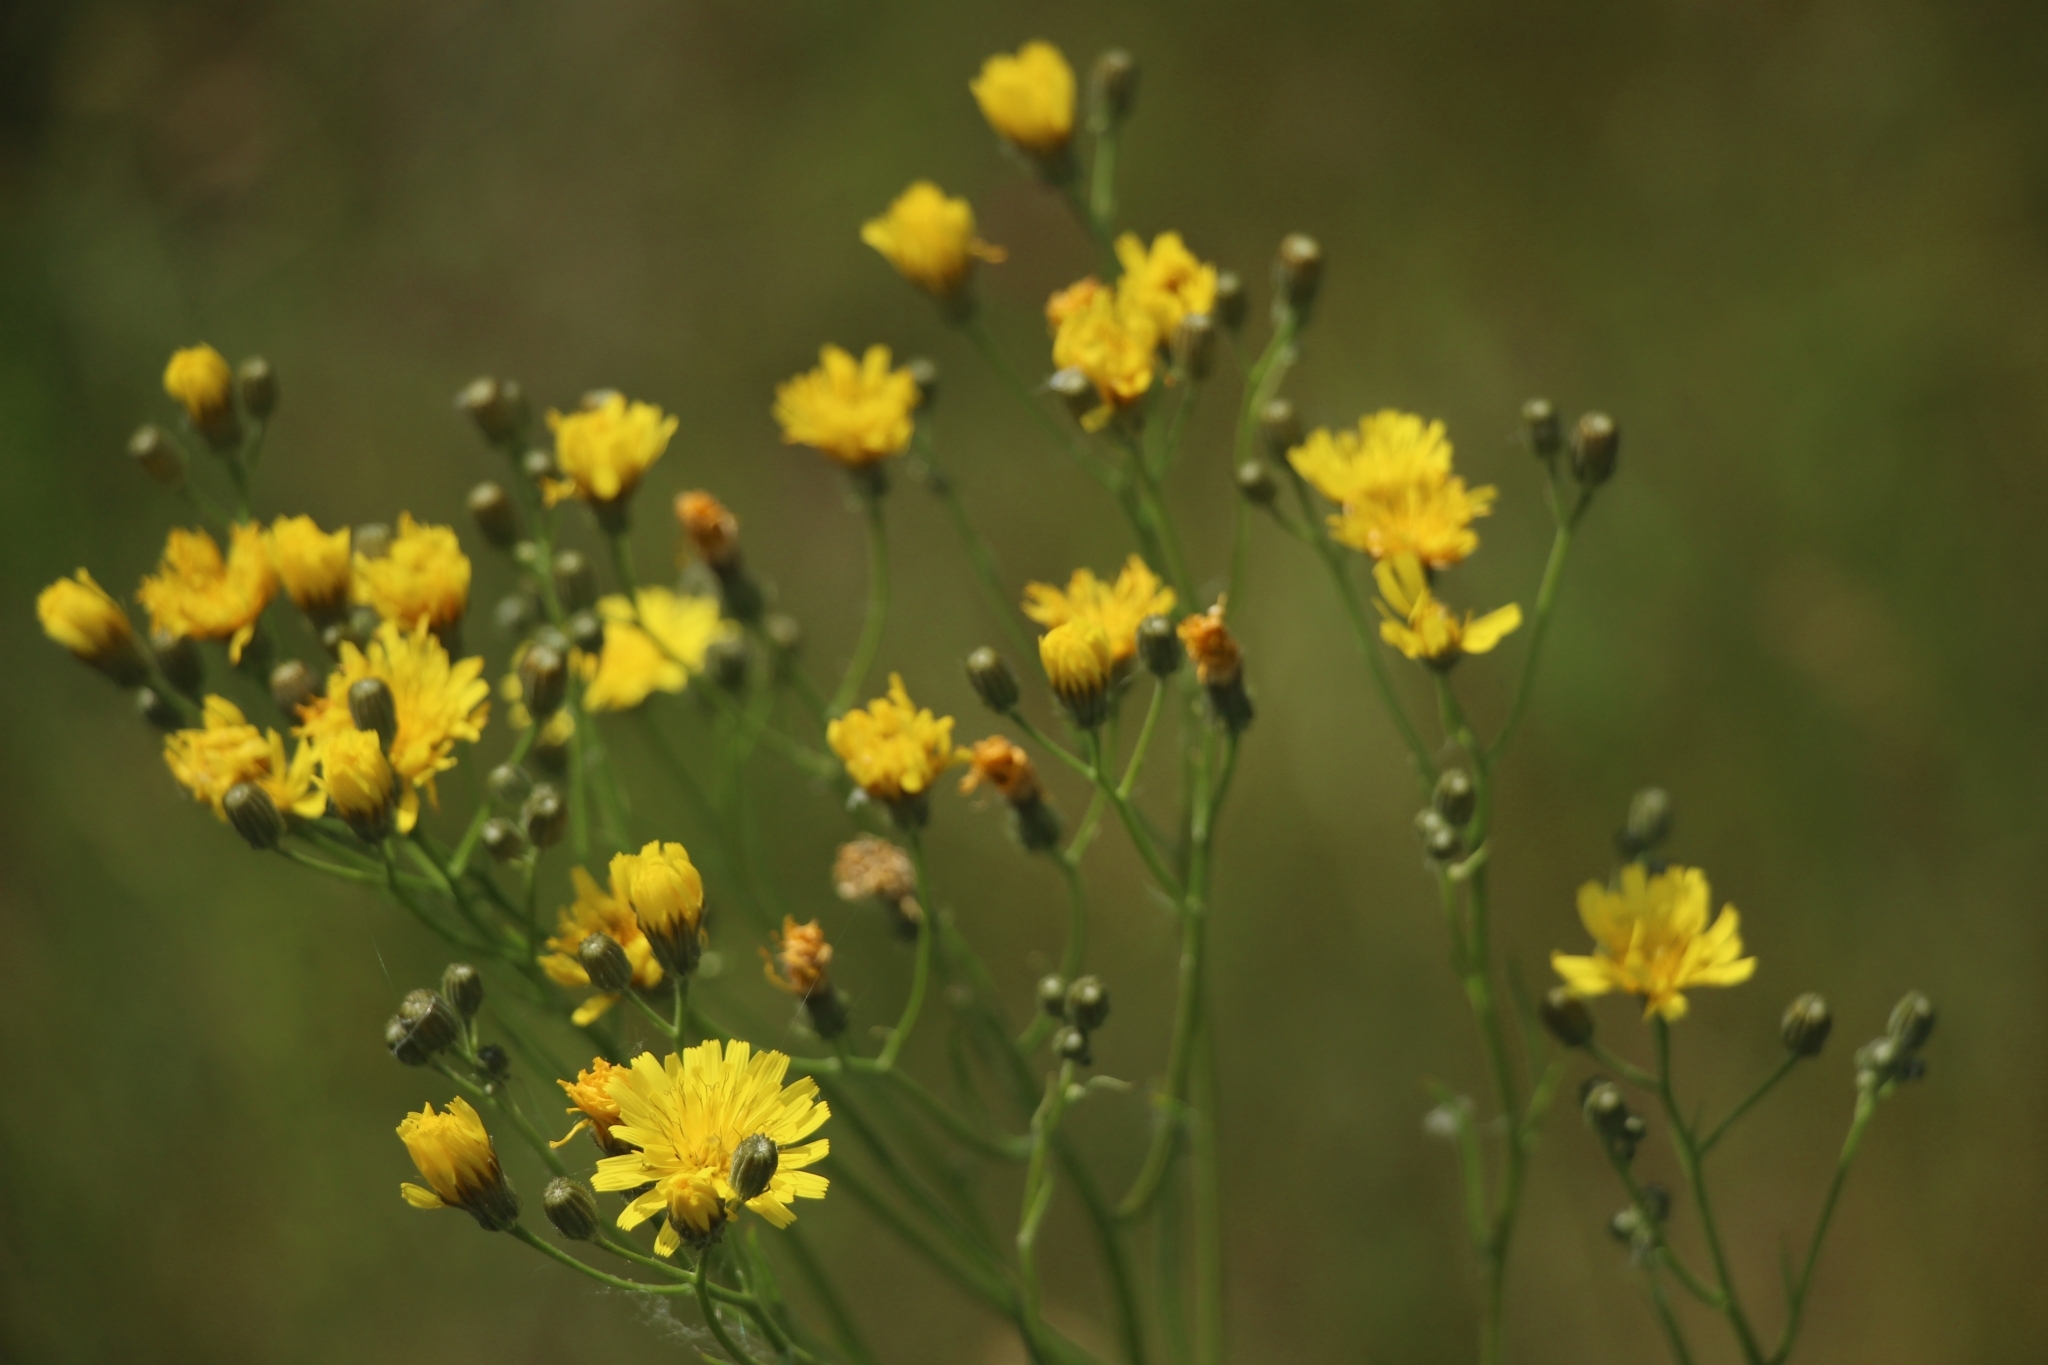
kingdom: Plantae
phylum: Tracheophyta
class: Magnoliopsida
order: Asterales
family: Asteraceae
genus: Crepis
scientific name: Crepis tectorum
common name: Narrow-leaved hawk's-beard
